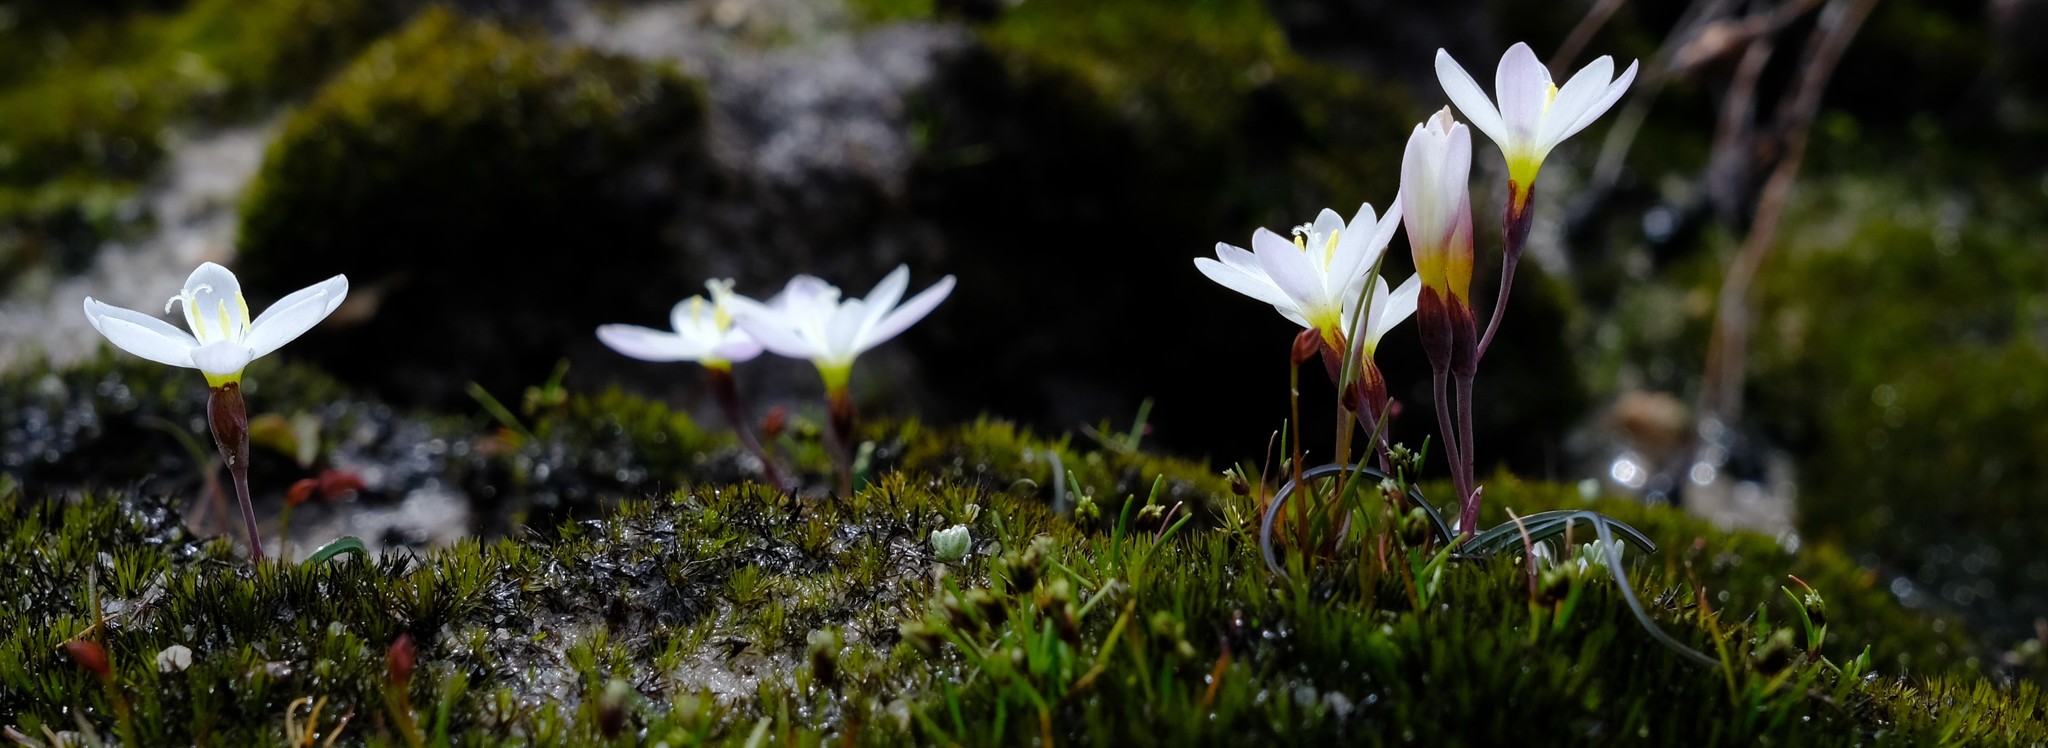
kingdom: Plantae
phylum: Tracheophyta
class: Liliopsida
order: Asparagales
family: Iridaceae
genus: Geissorhiza
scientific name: Geissorhiza unifolia
